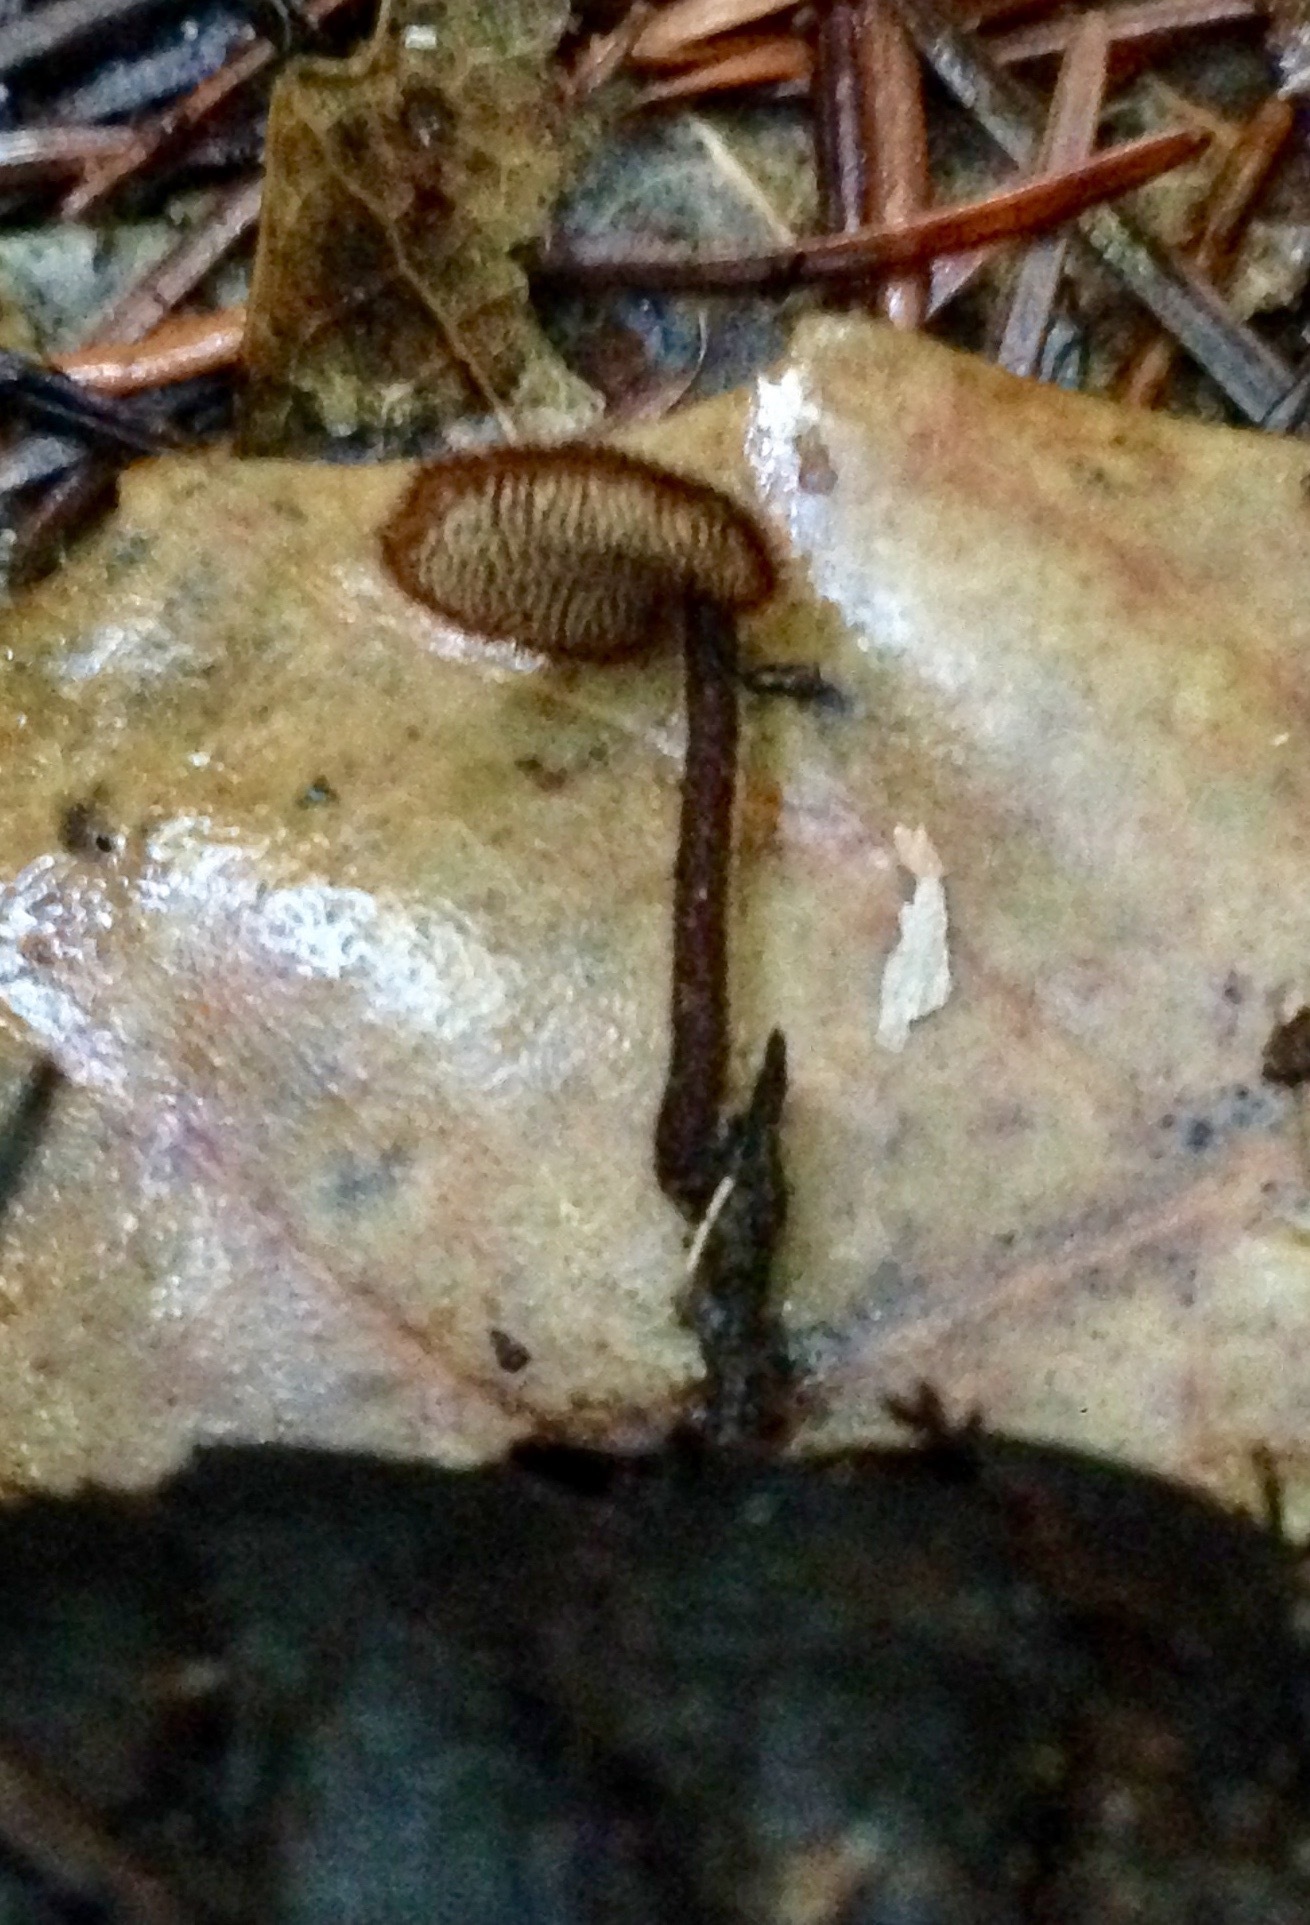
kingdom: Fungi
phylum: Basidiomycota
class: Agaricomycetes
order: Russulales
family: Auriscalpiaceae
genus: Auriscalpium
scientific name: Auriscalpium vulgare
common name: Earpick fungus
